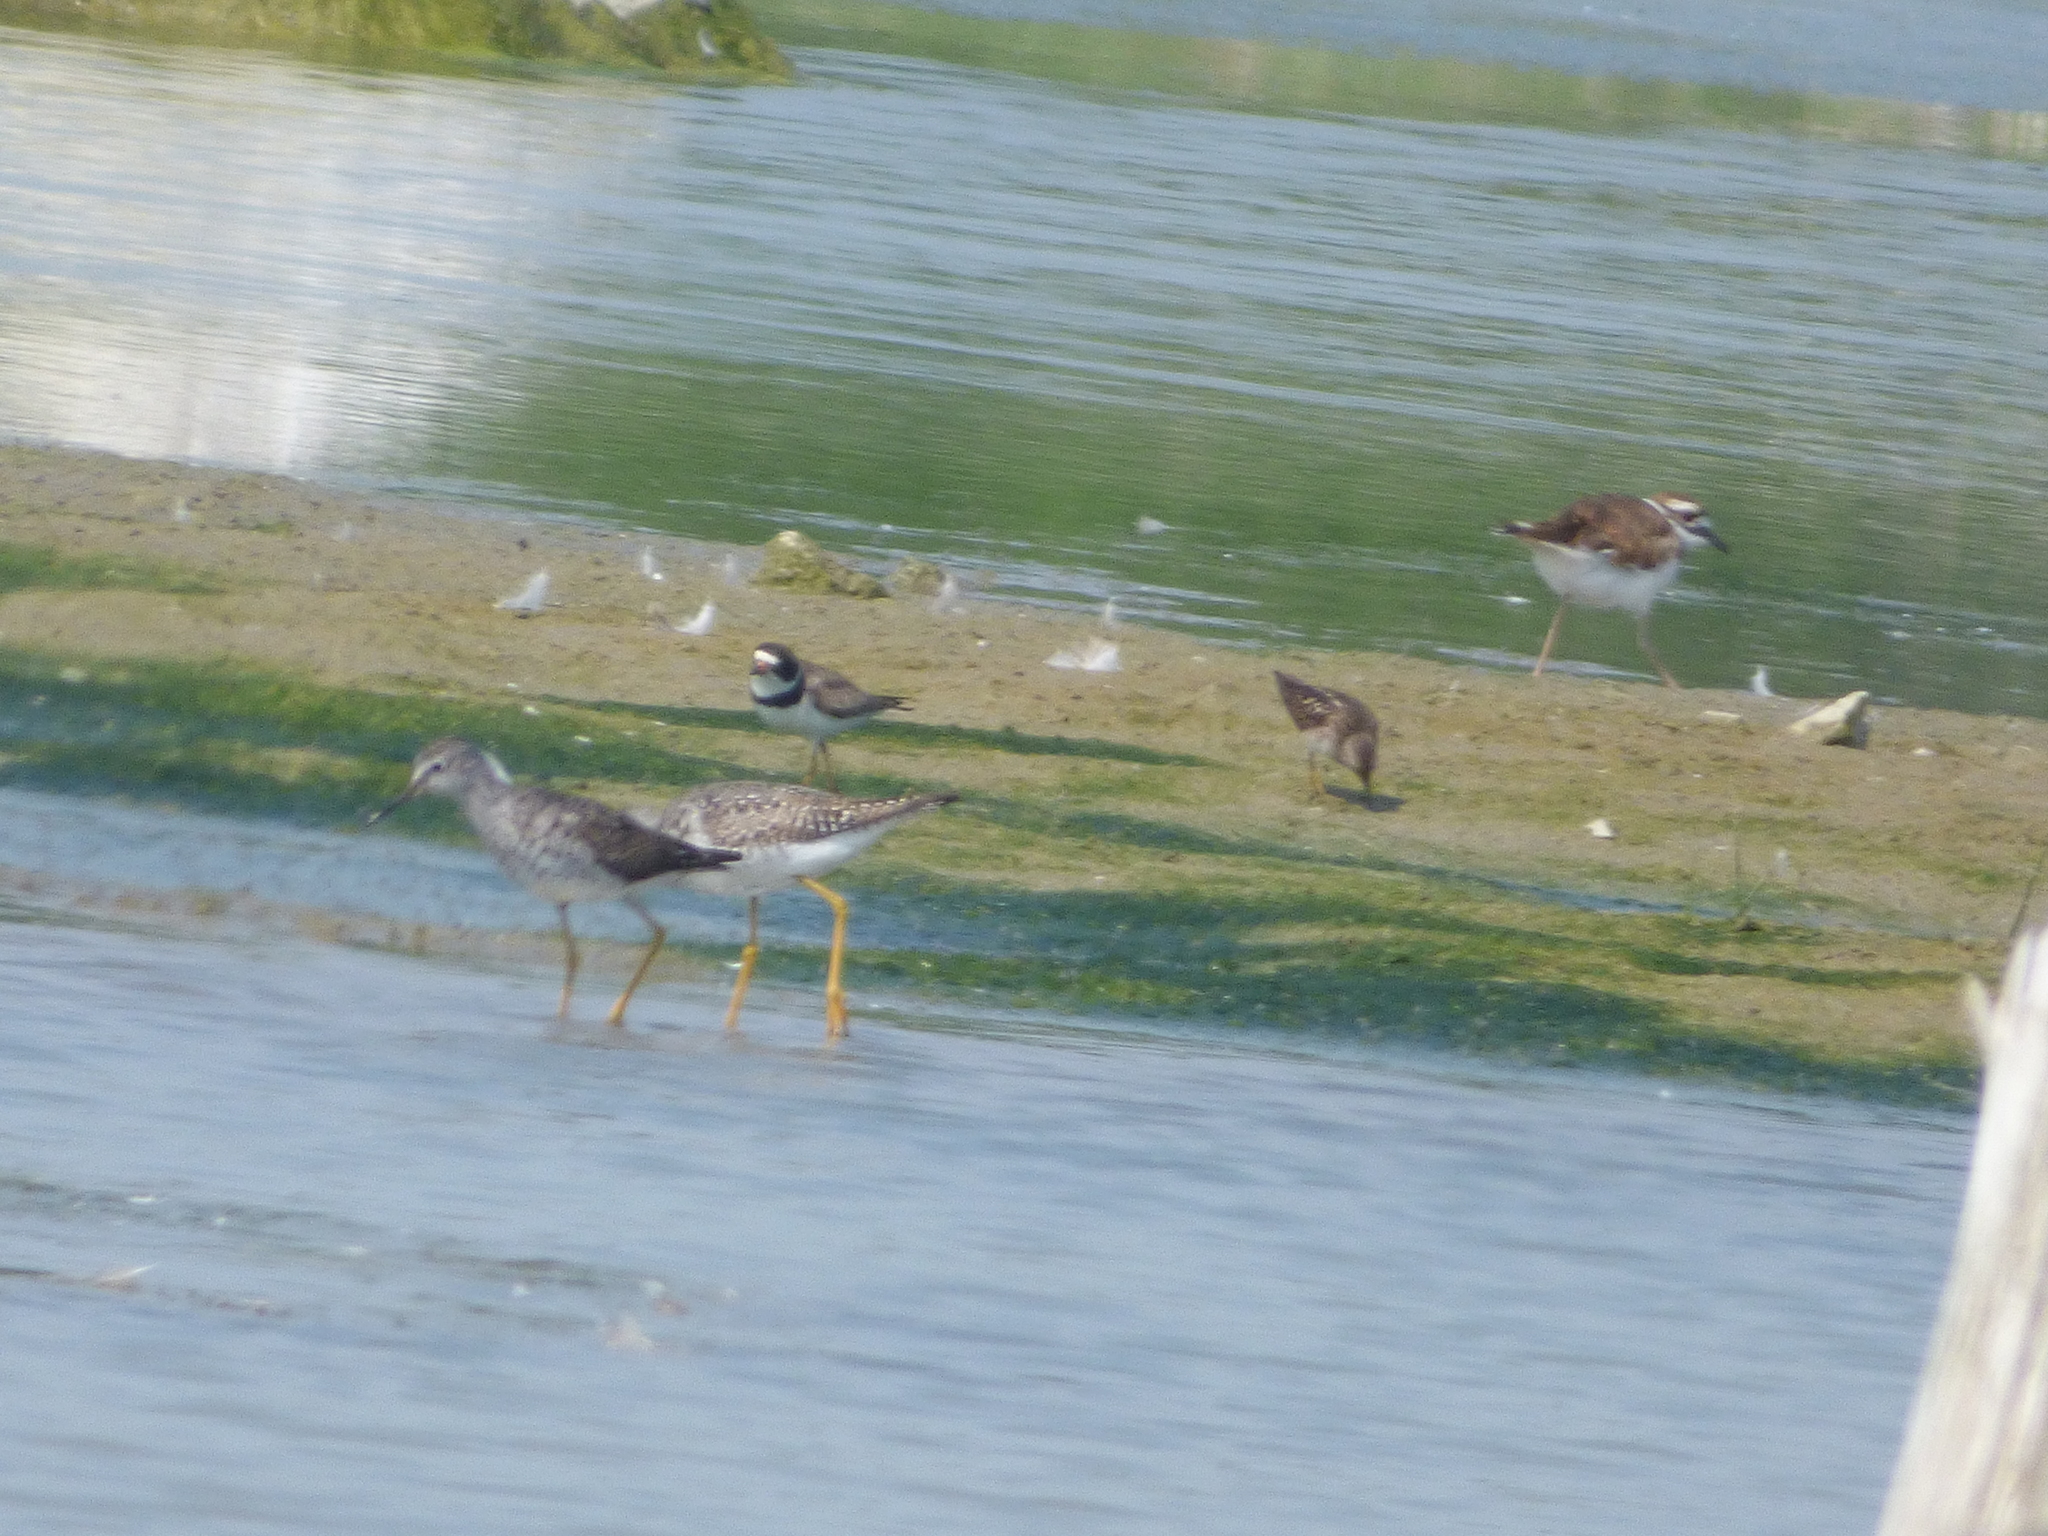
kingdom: Animalia
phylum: Chordata
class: Aves
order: Charadriiformes
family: Charadriidae
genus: Charadrius
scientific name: Charadrius semipalmatus
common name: Semipalmated plover
